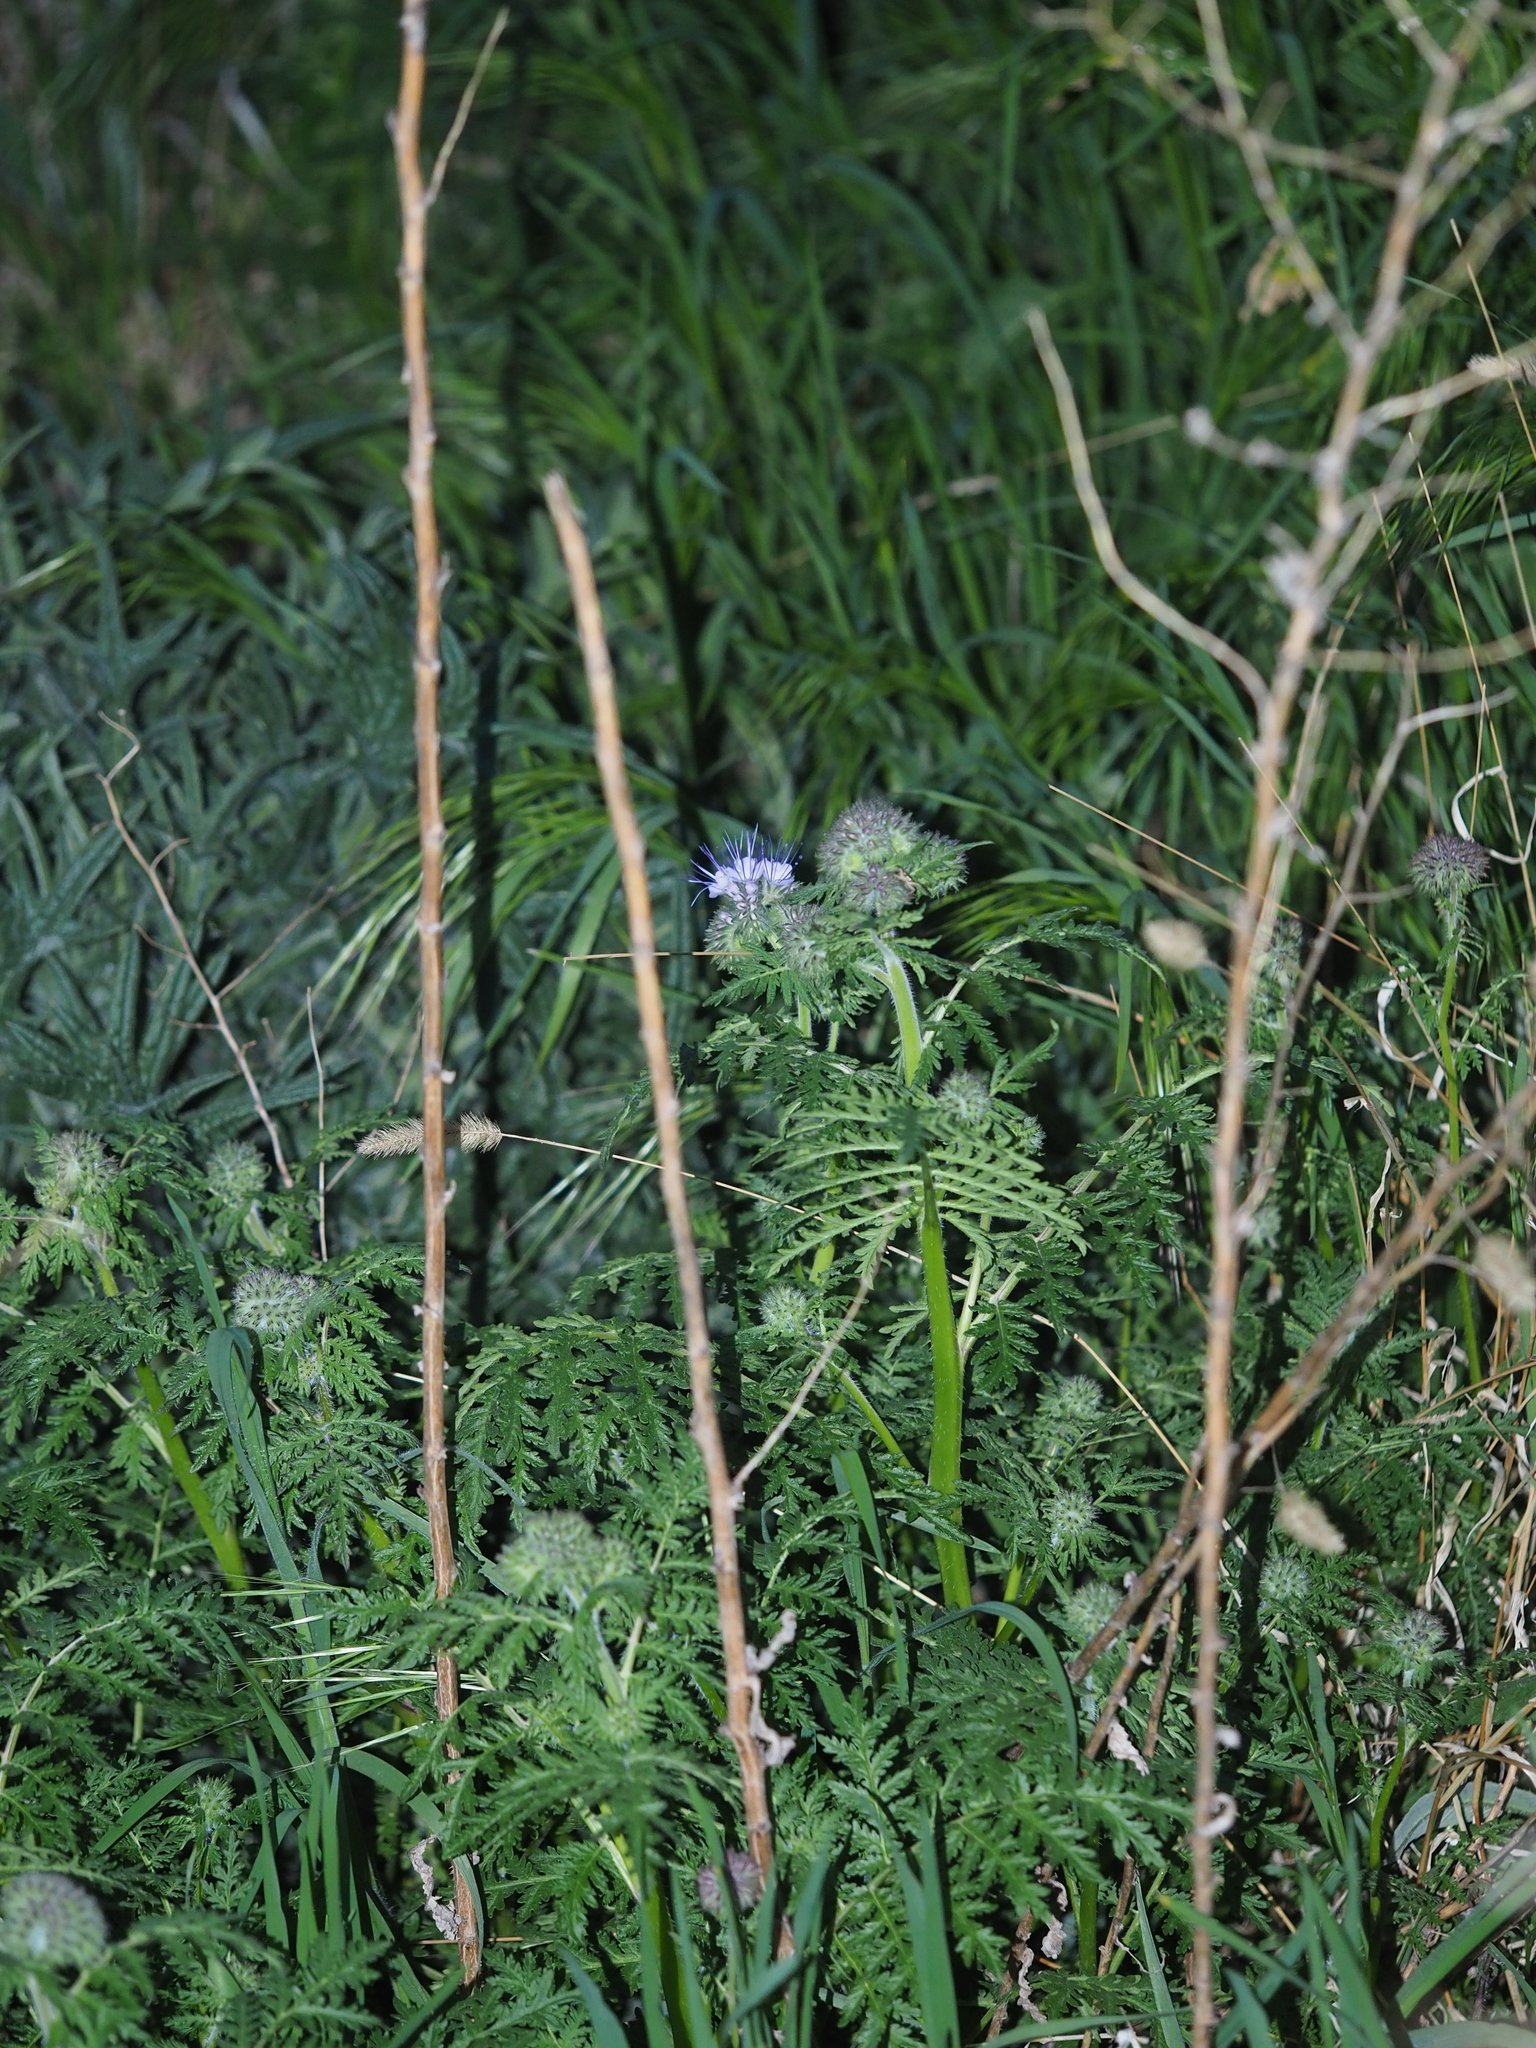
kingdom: Plantae
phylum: Tracheophyta
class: Magnoliopsida
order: Boraginales
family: Hydrophyllaceae
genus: Phacelia
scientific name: Phacelia tanacetifolia
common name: Phacelia
